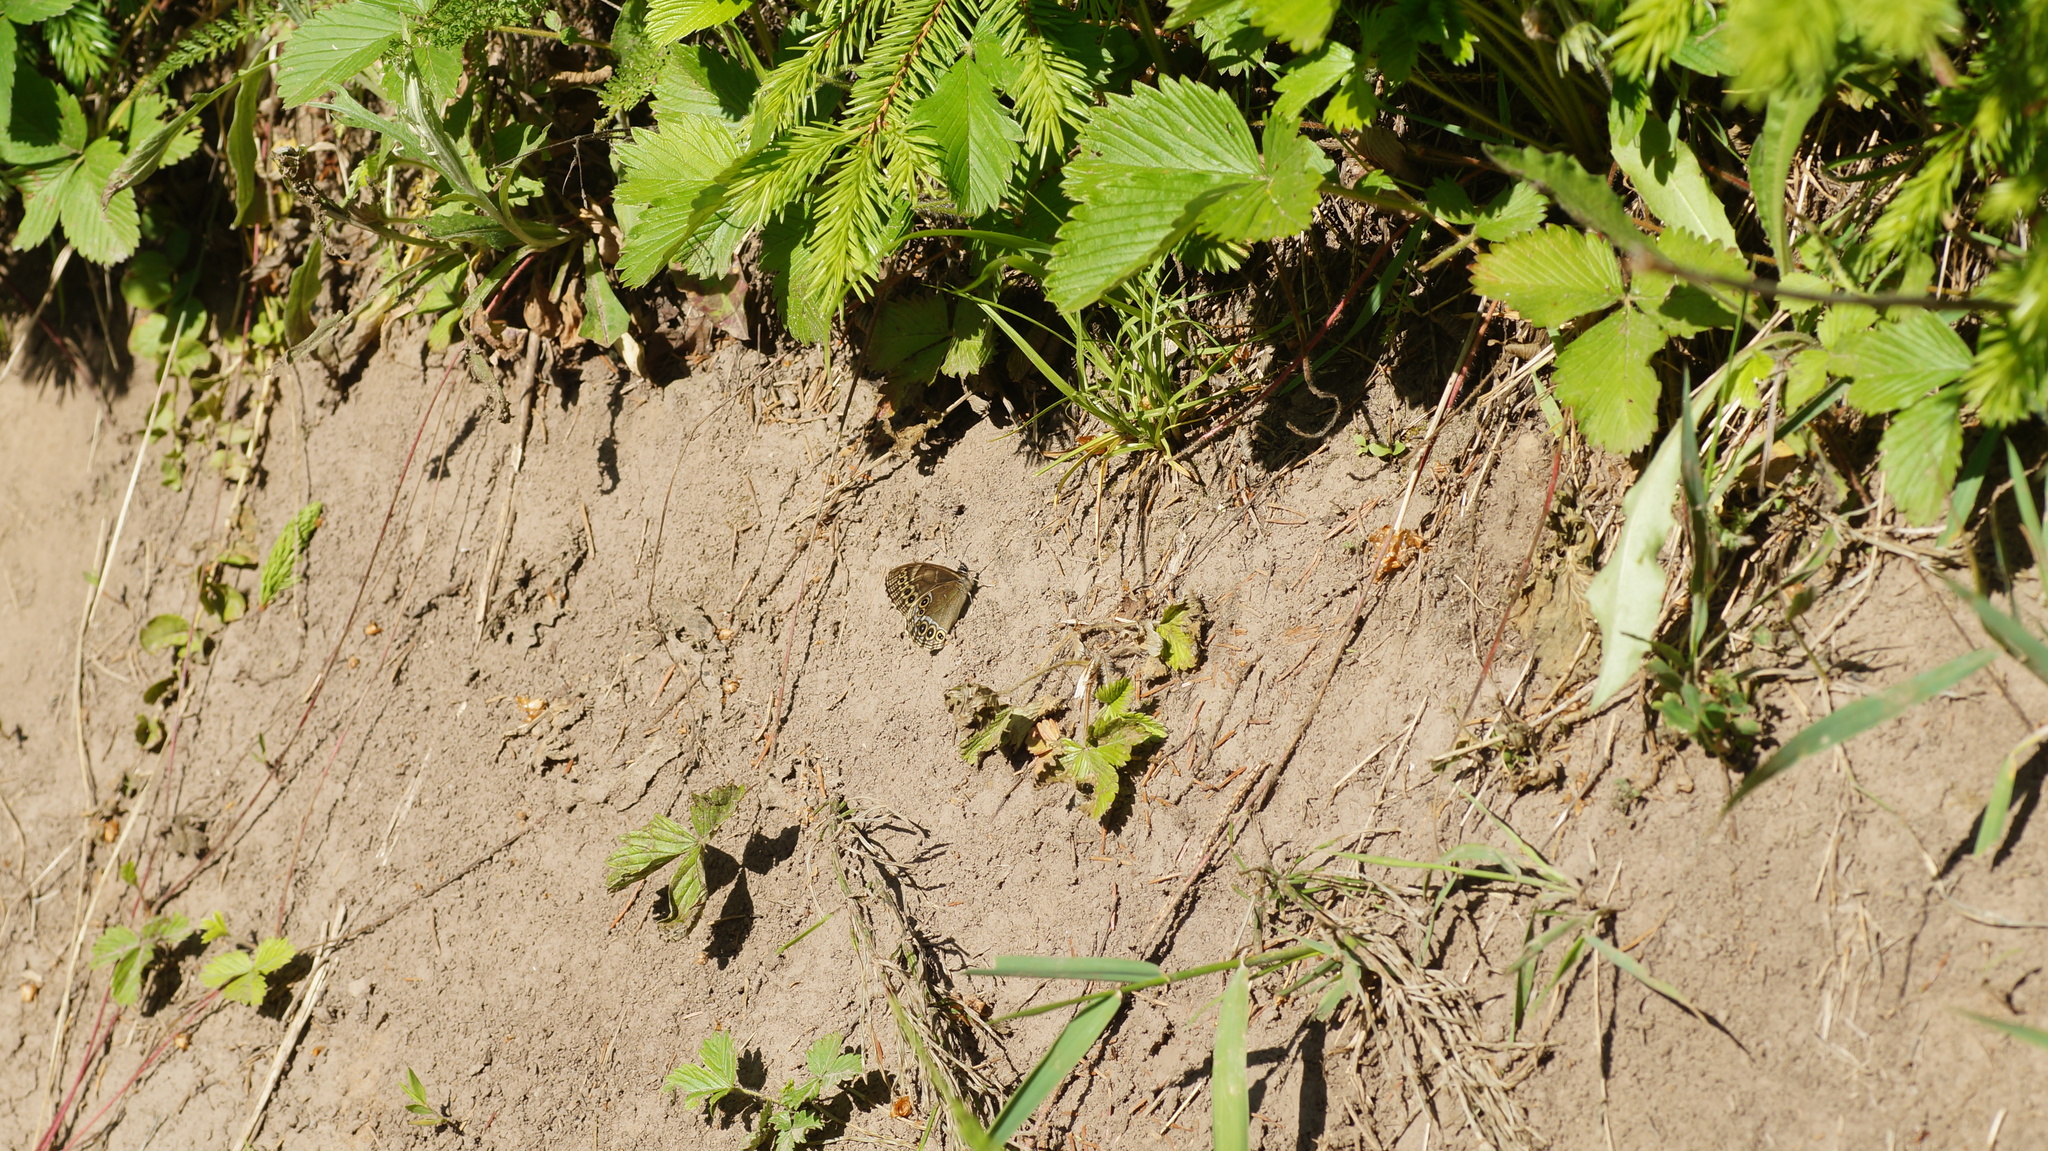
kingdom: Animalia
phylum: Arthropoda
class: Insecta
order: Lepidoptera
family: Nymphalidae
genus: Pararge
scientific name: Pararge Lopinga achine
